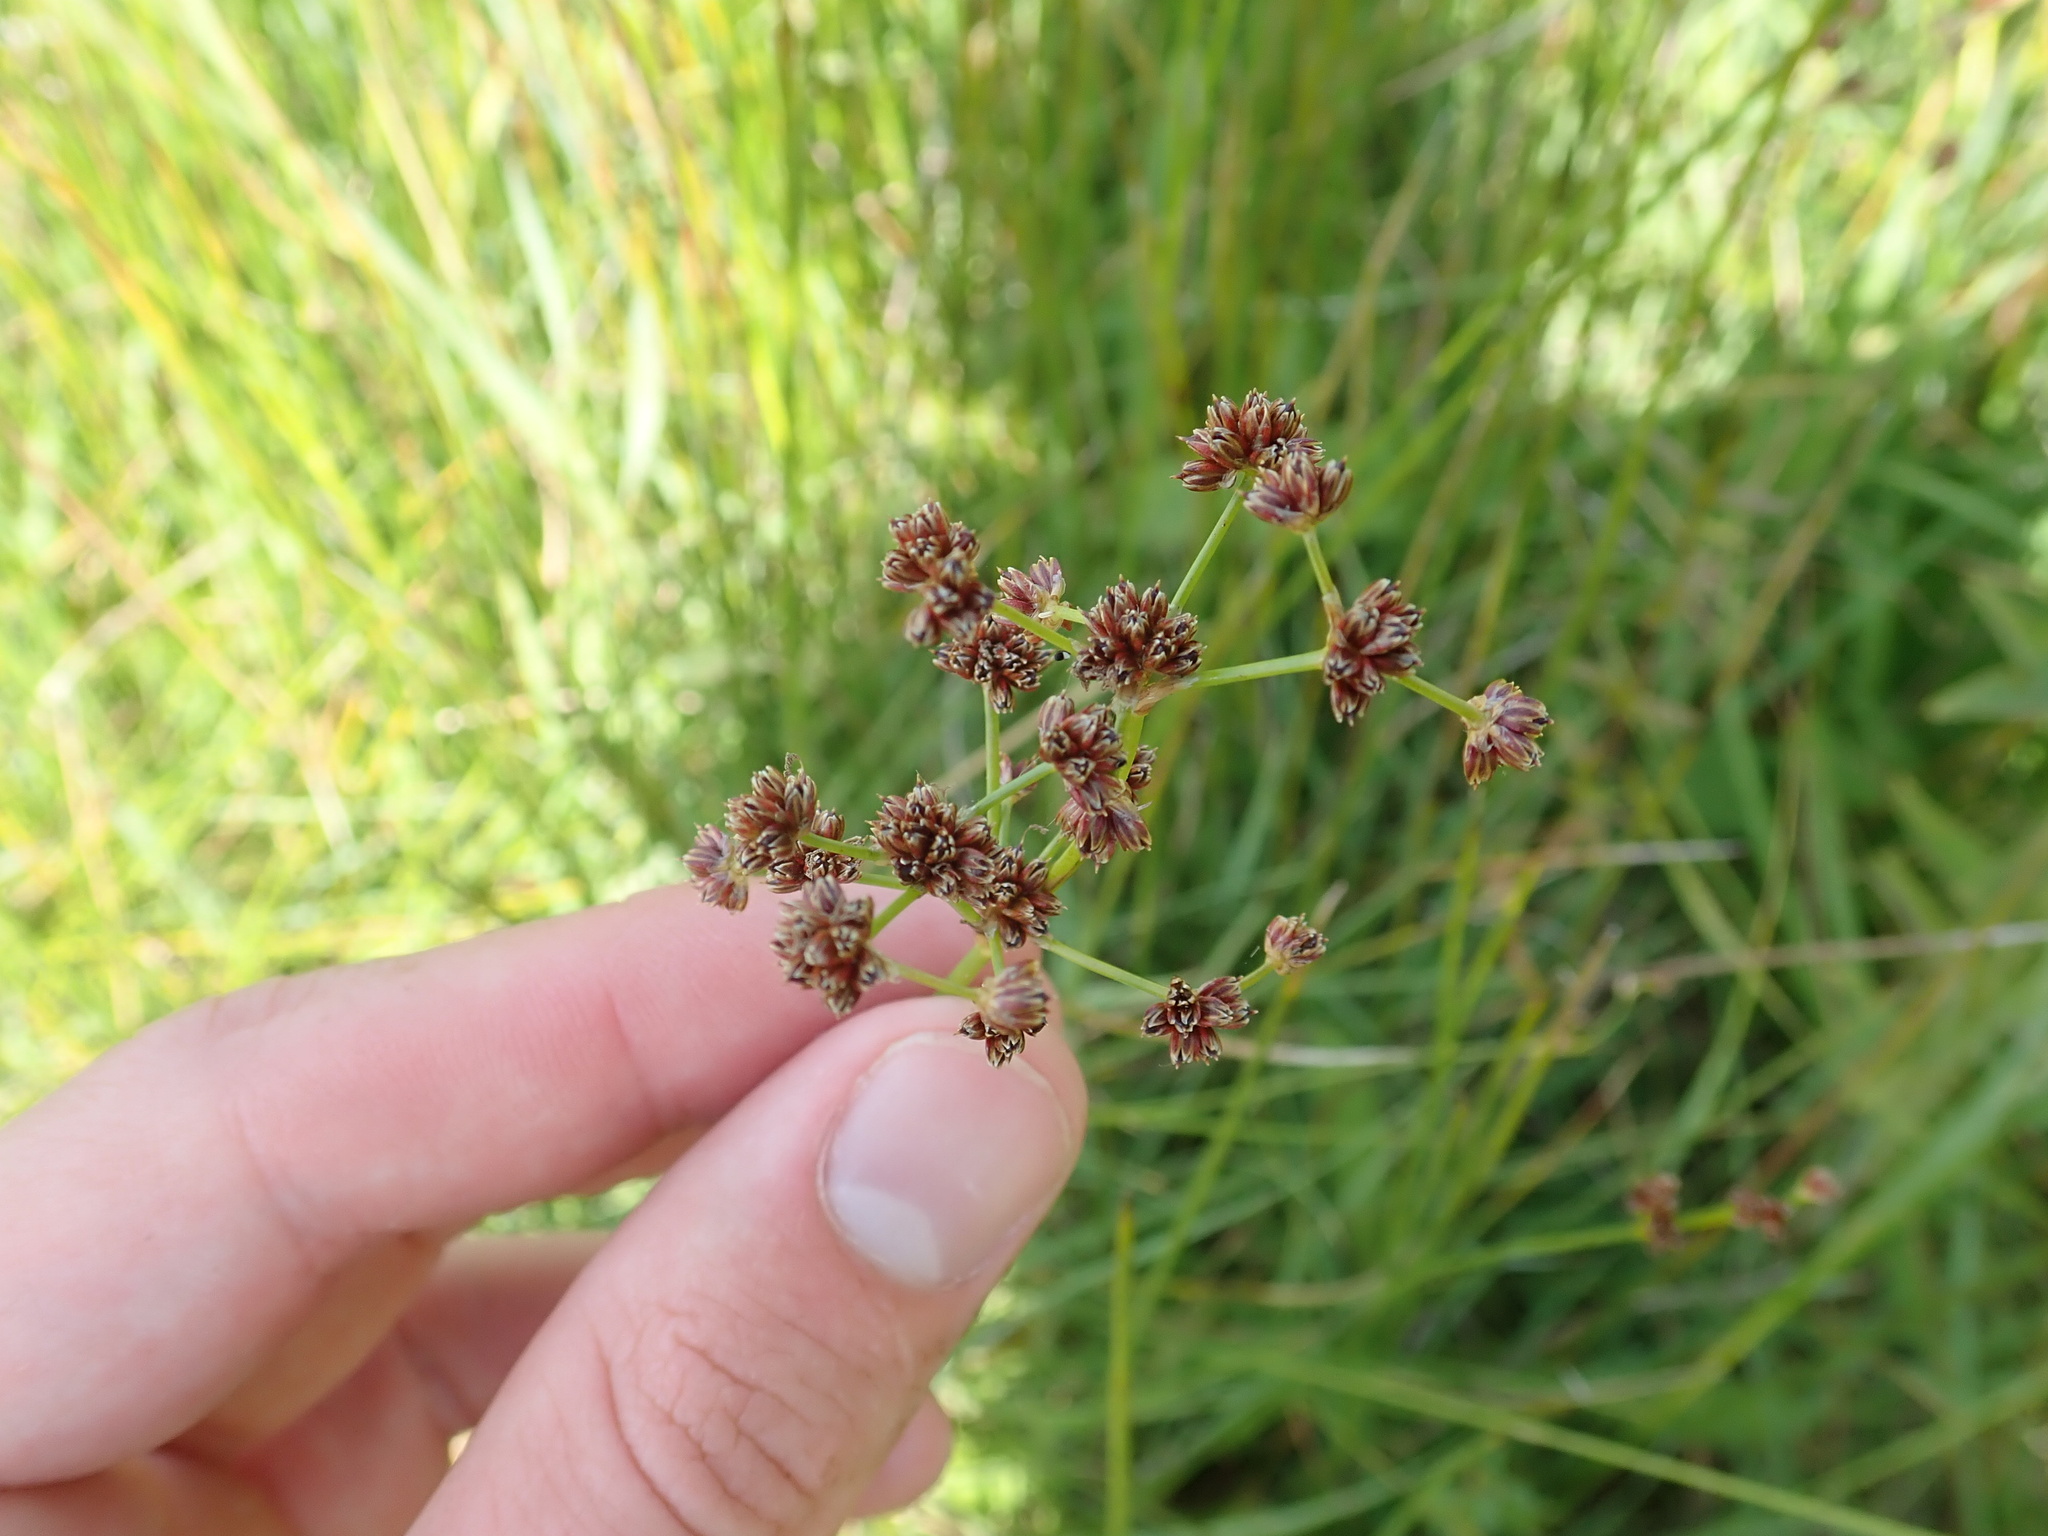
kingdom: Plantae
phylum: Tracheophyta
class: Liliopsida
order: Poales
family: Juncaceae
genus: Juncus
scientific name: Juncus subnodulosus
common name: Blunt-flowered rush
